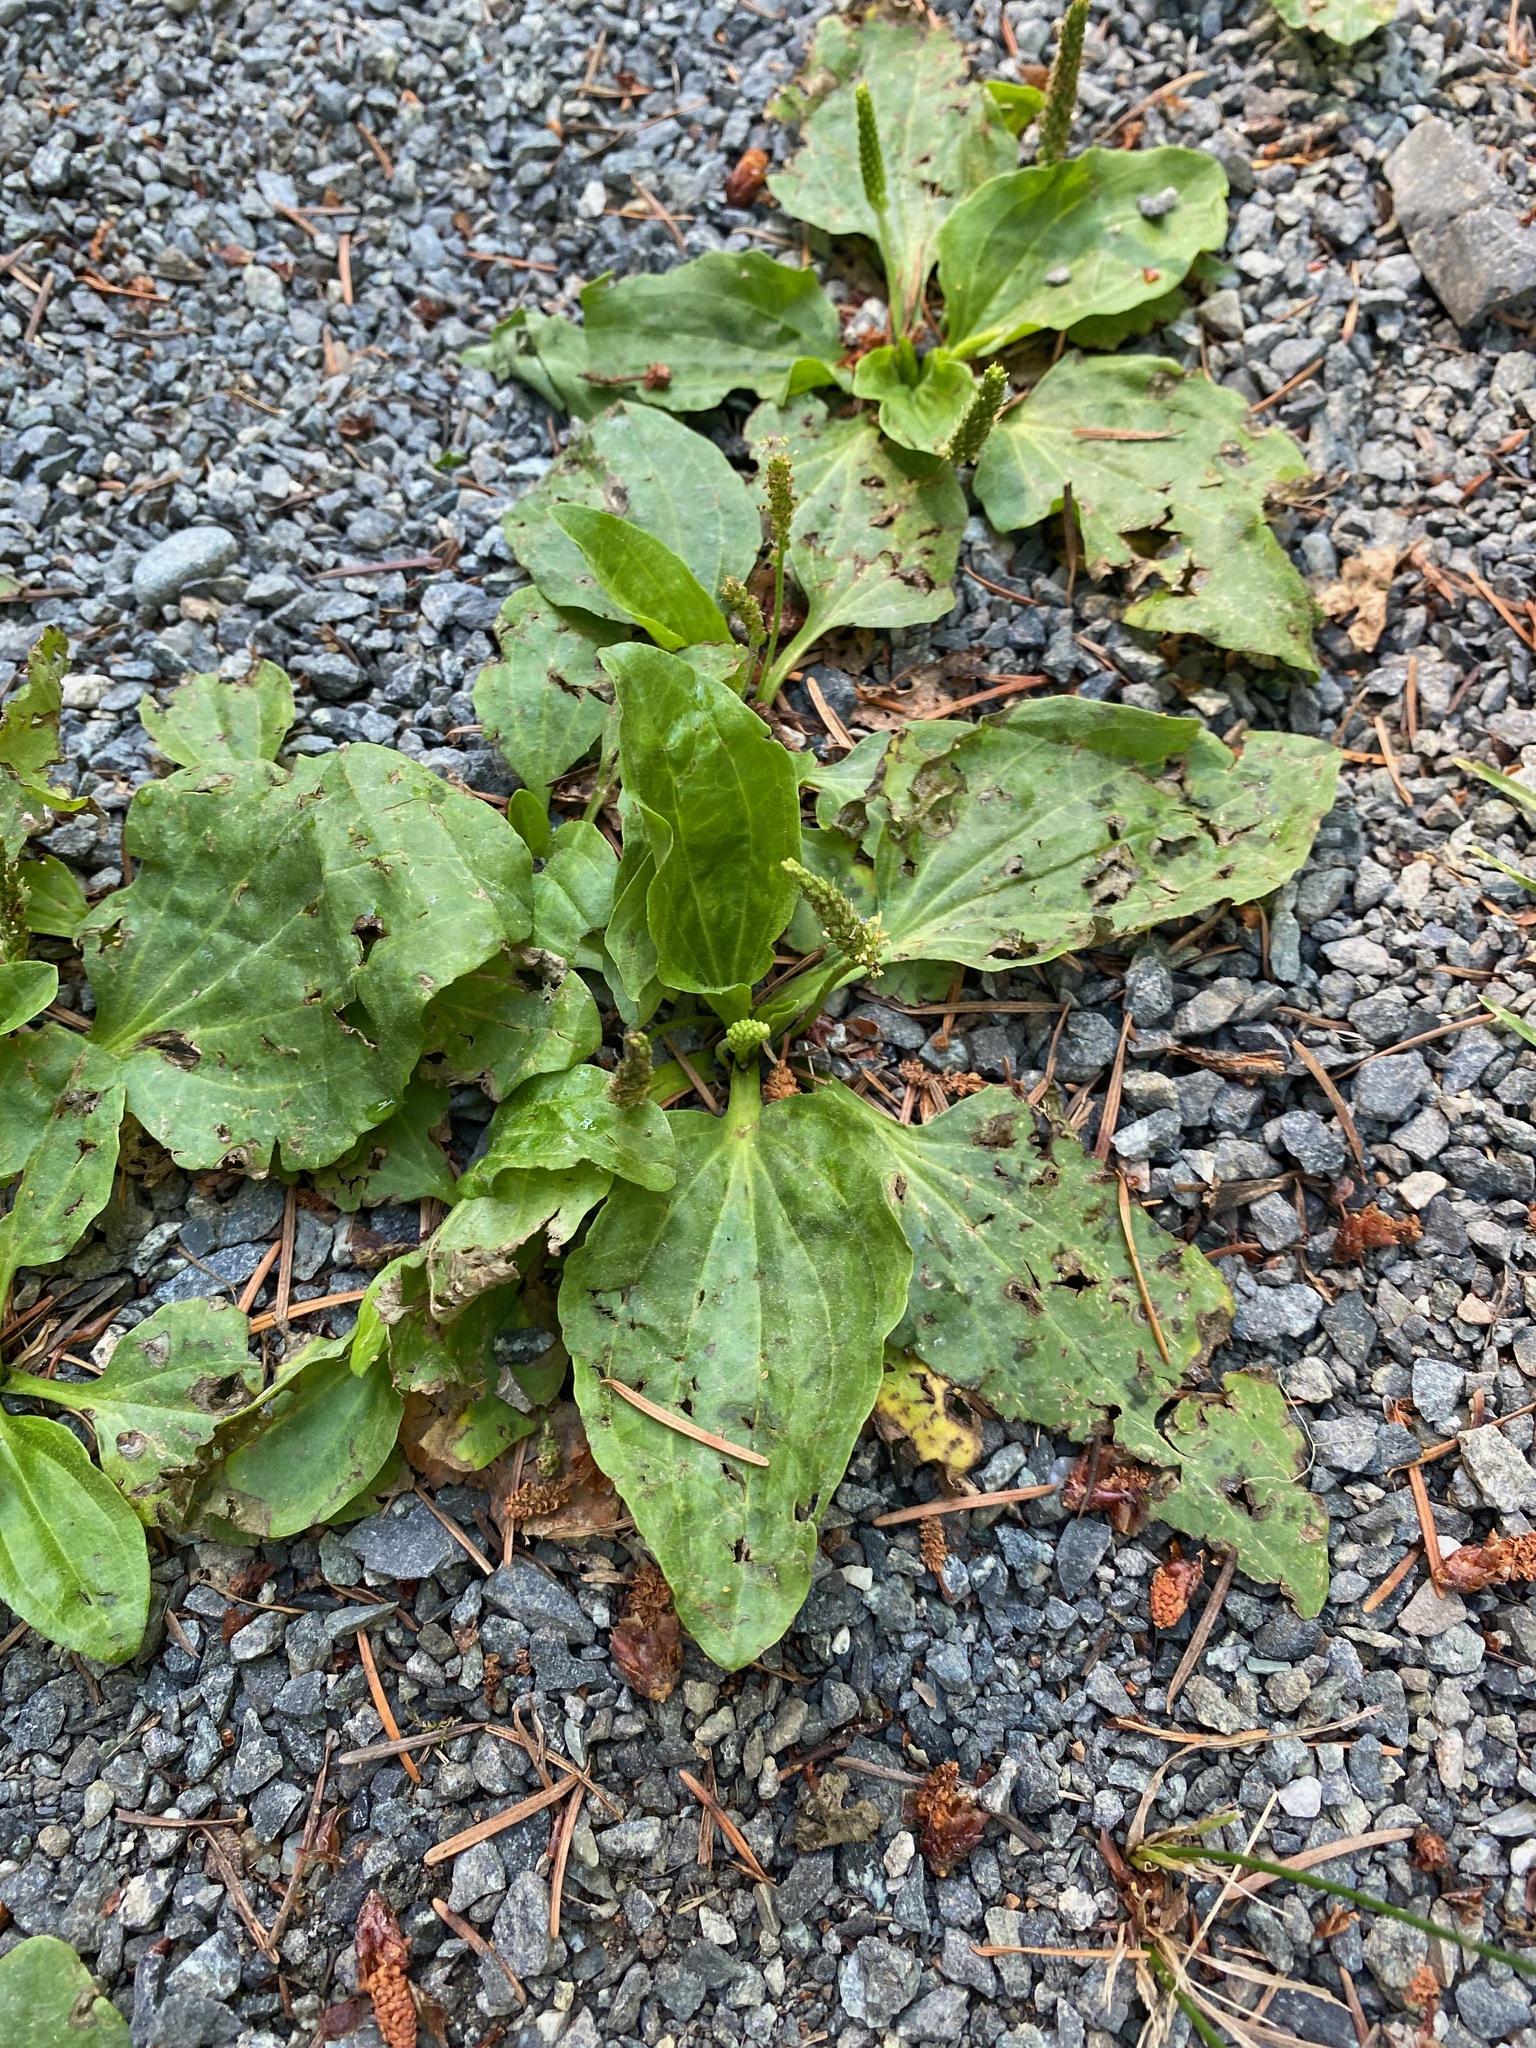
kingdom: Plantae
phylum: Tracheophyta
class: Magnoliopsida
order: Lamiales
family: Plantaginaceae
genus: Plantago
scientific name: Plantago major
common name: Common plantain
